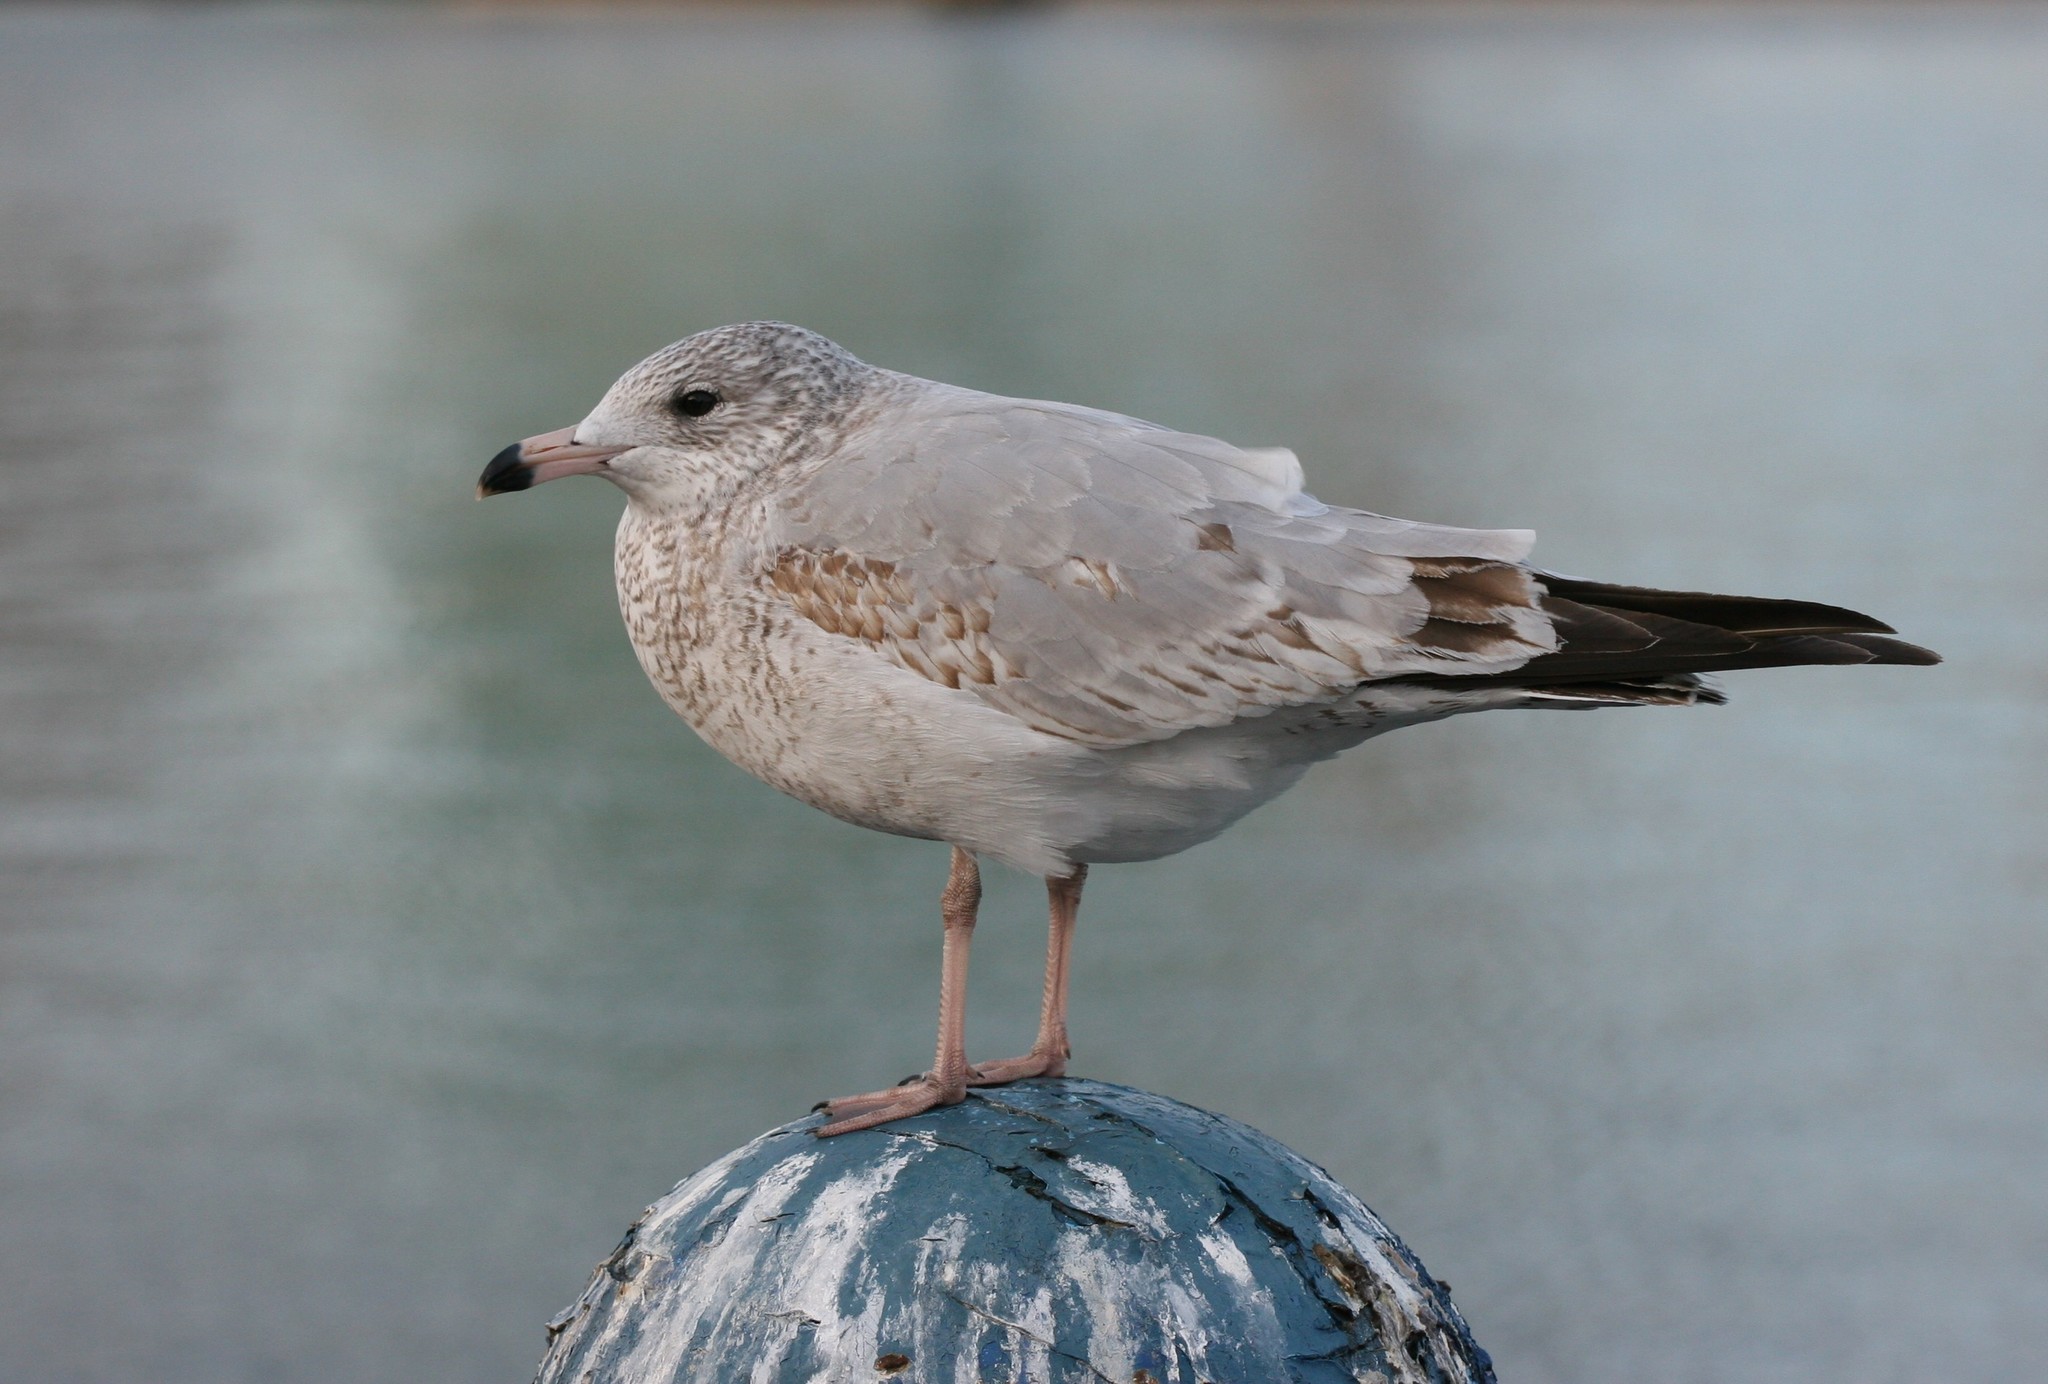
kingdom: Animalia
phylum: Chordata
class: Aves
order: Charadriiformes
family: Laridae
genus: Larus
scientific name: Larus delawarensis
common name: Ring-billed gull
